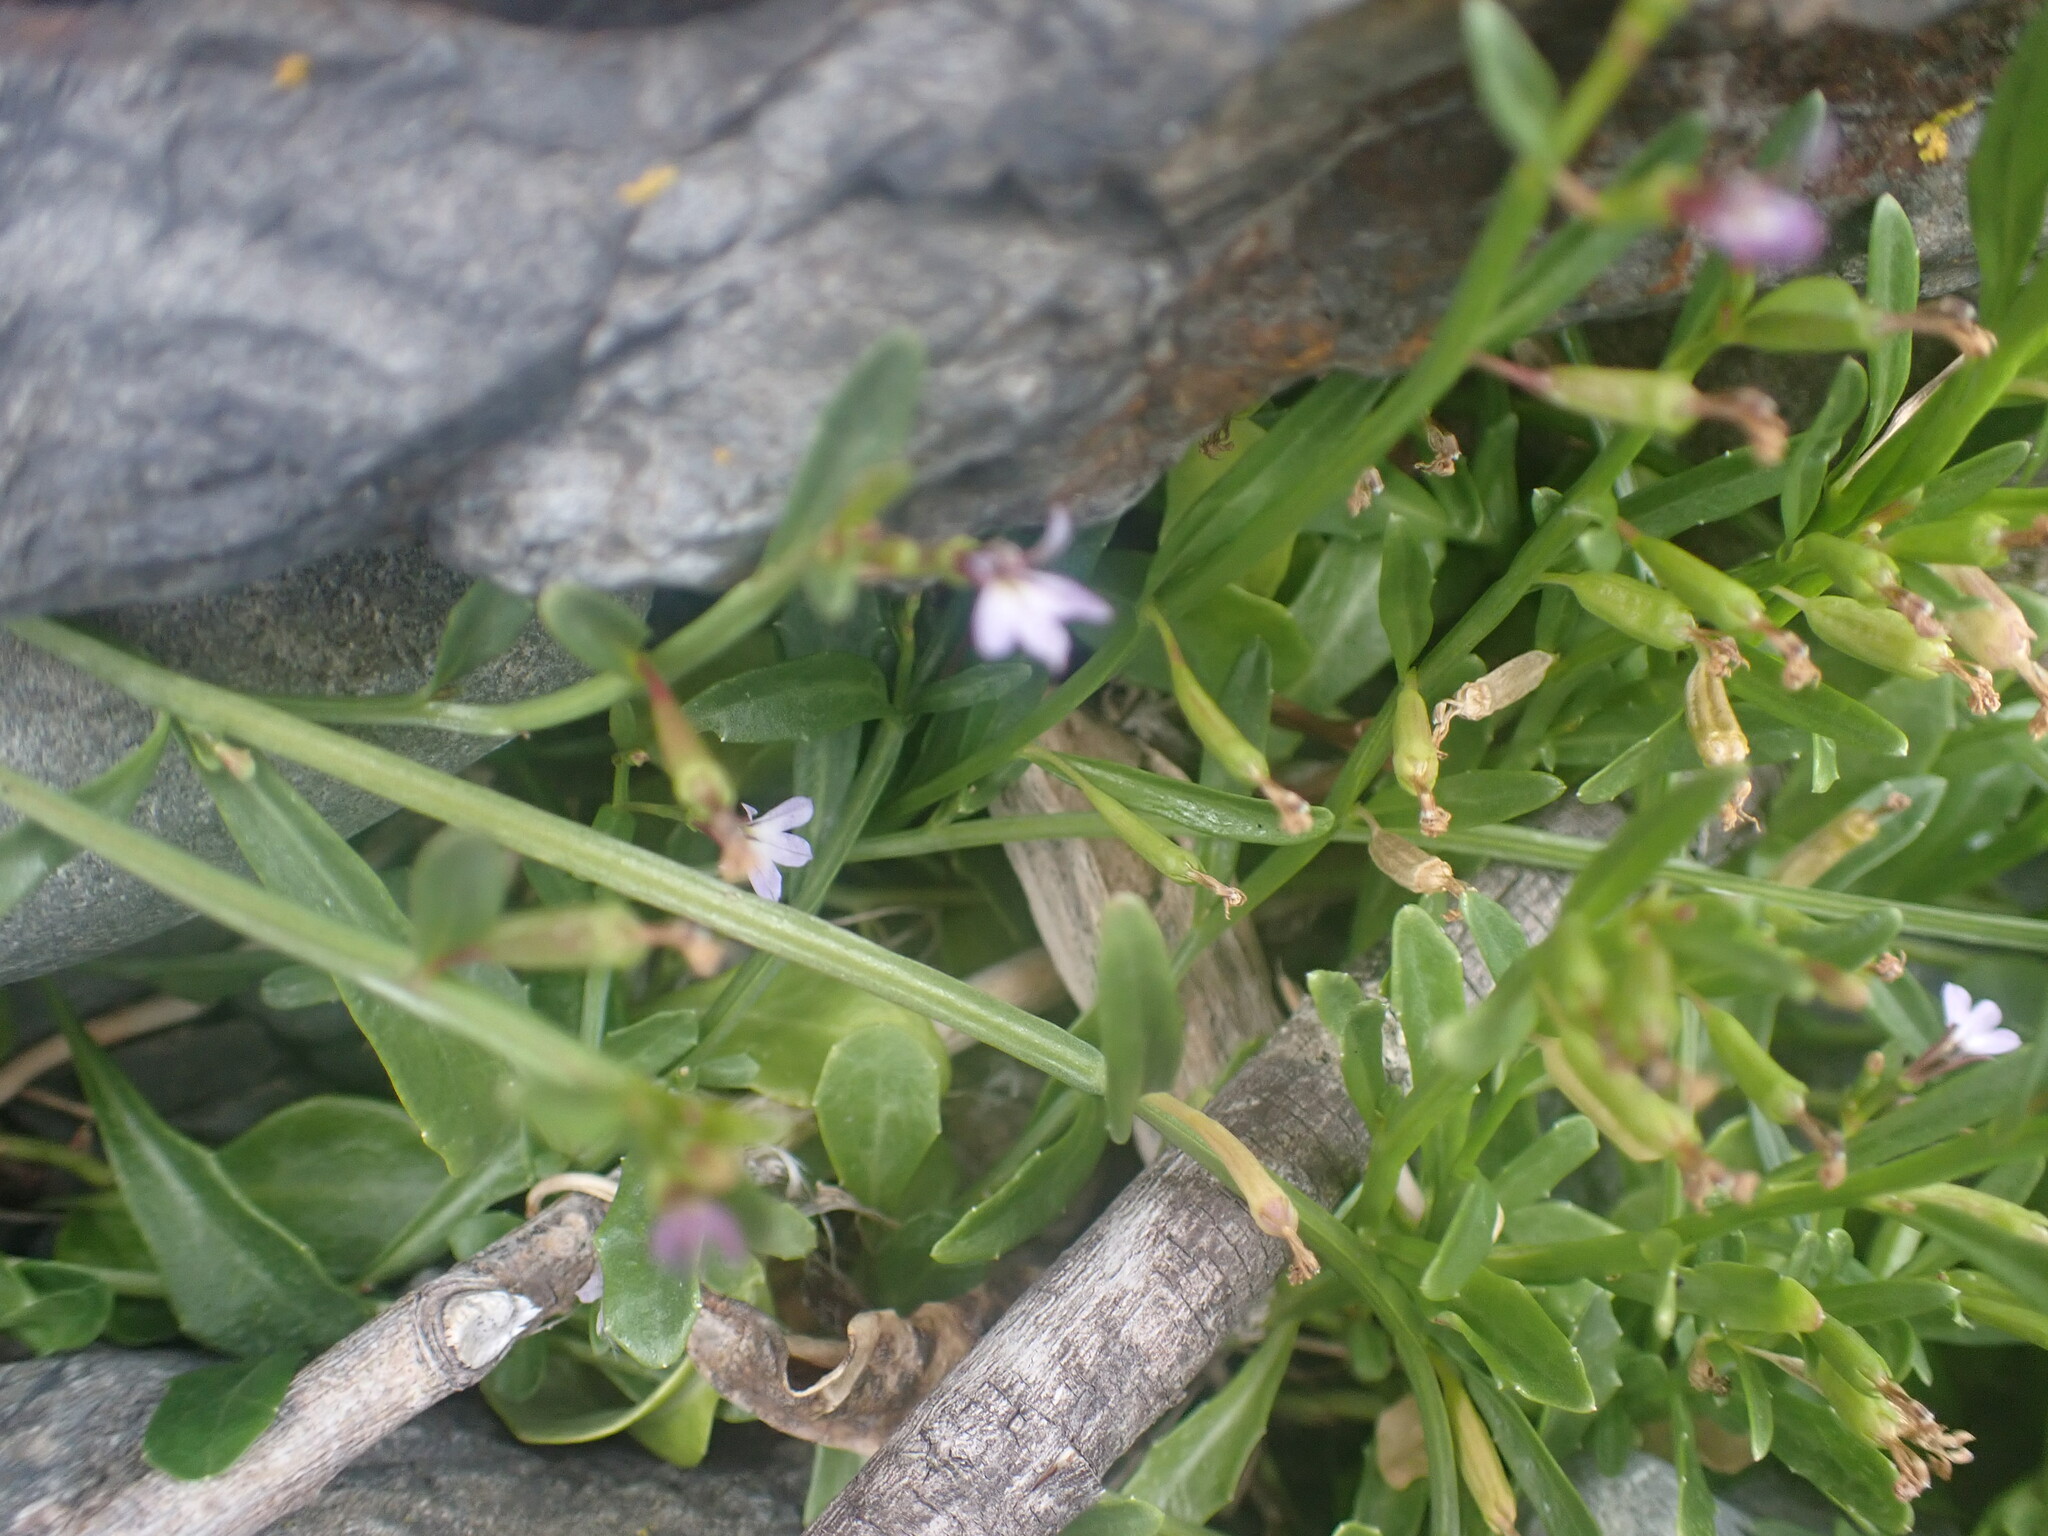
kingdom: Plantae
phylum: Tracheophyta
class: Magnoliopsida
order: Asterales
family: Campanulaceae
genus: Lobelia
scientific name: Lobelia anceps
